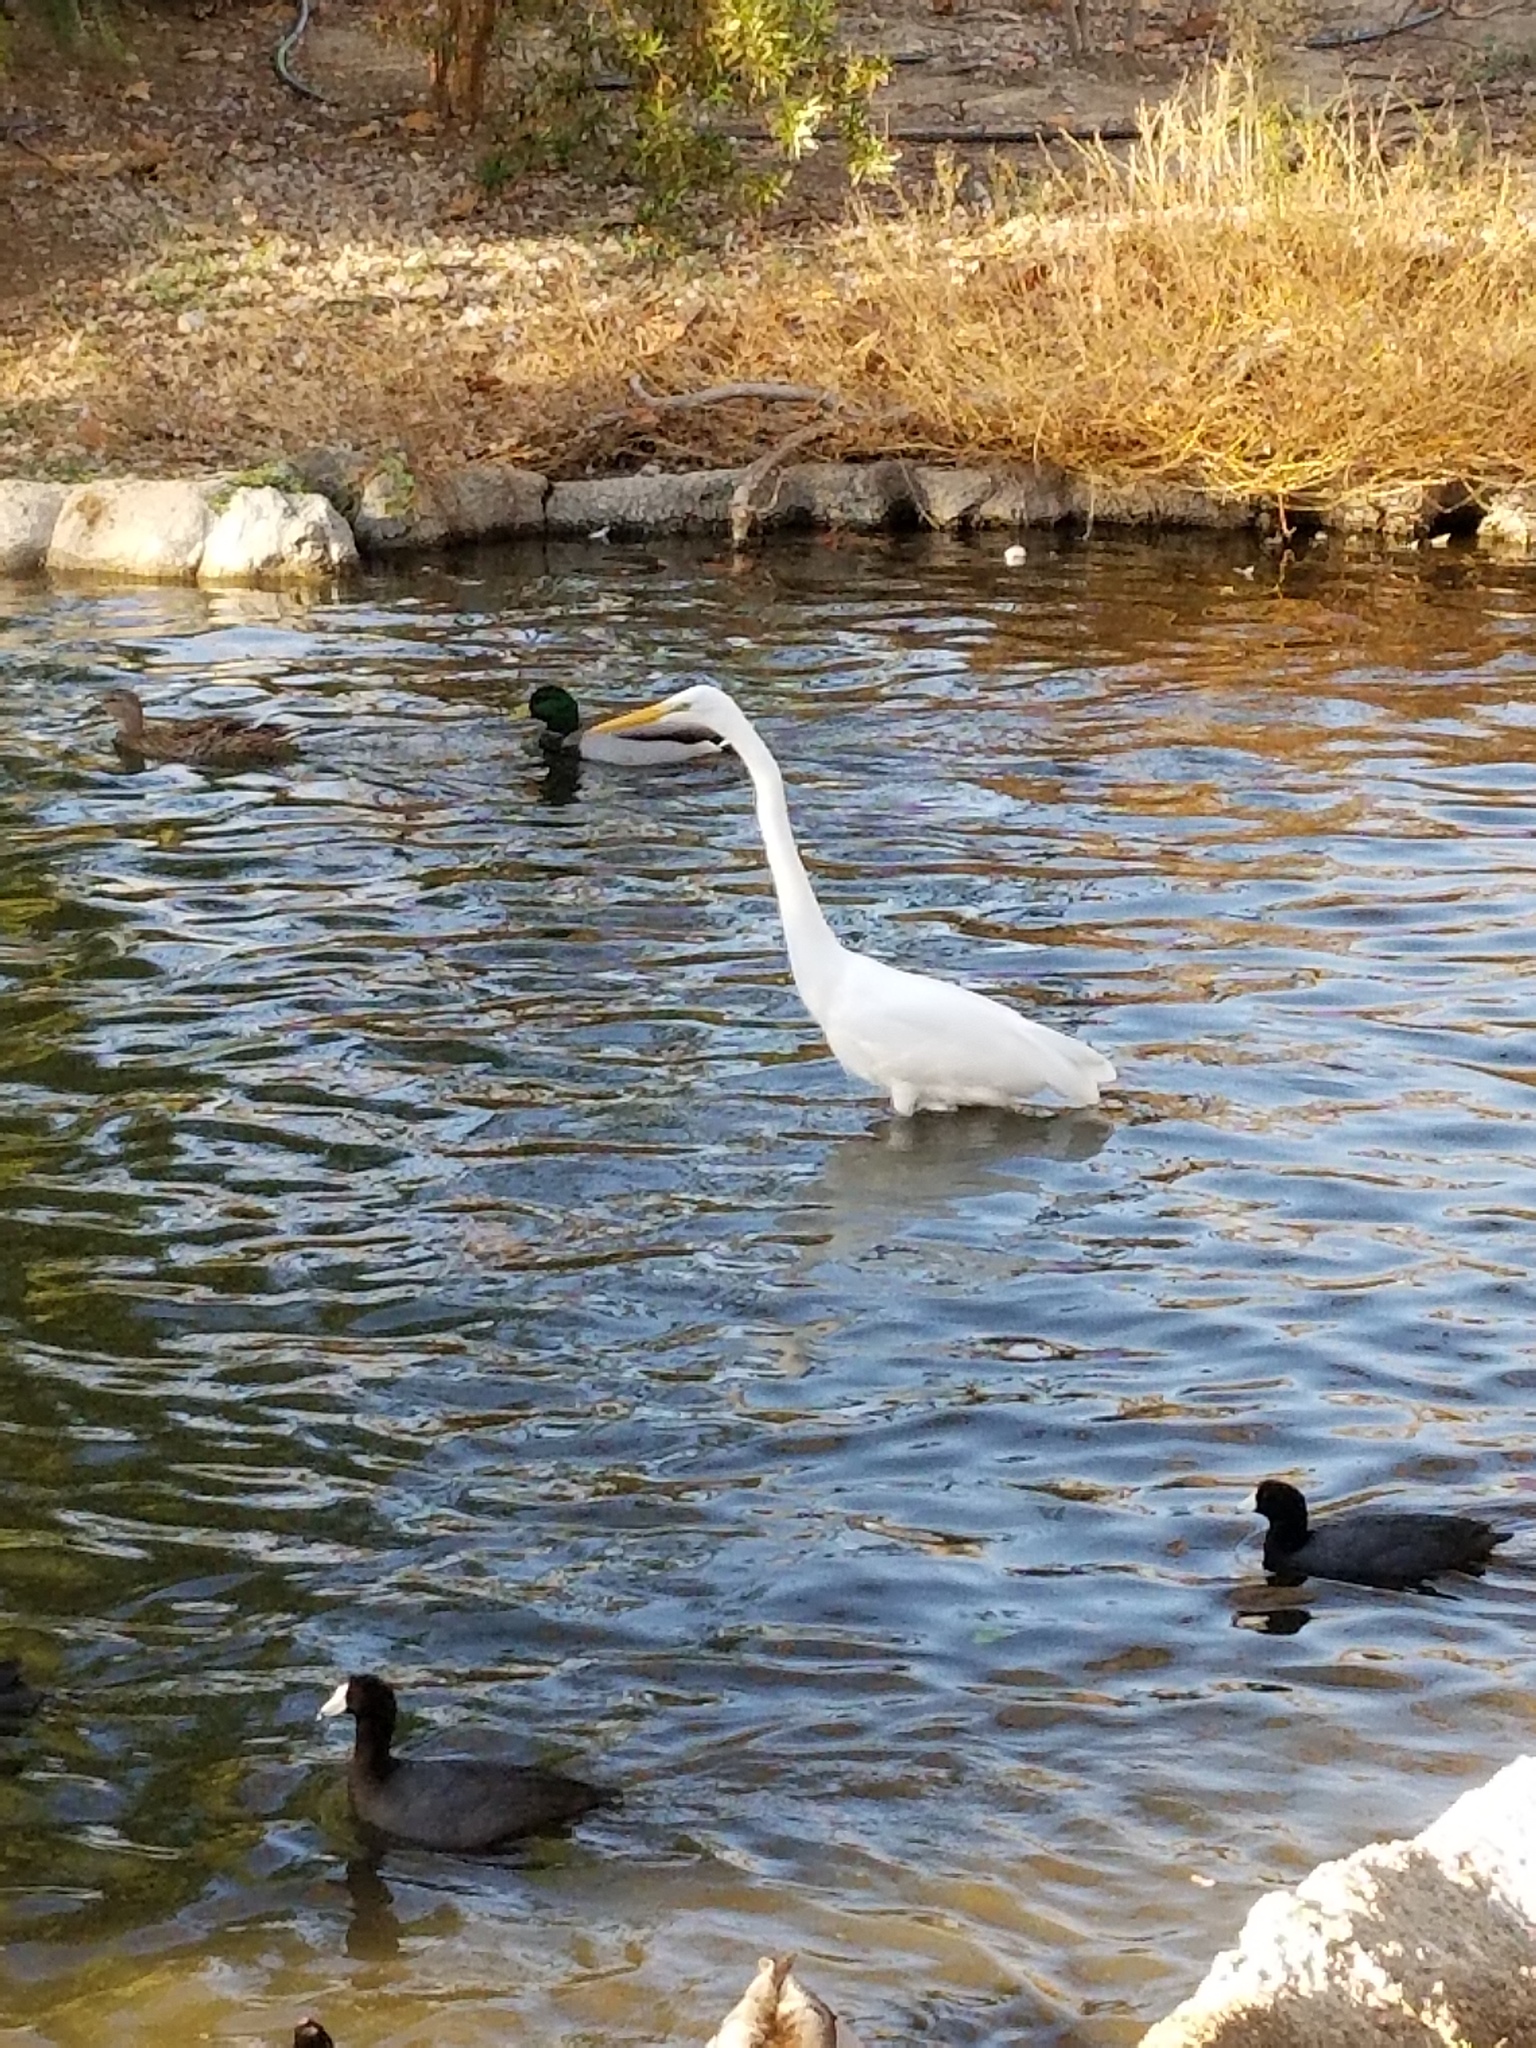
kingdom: Animalia
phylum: Chordata
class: Aves
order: Pelecaniformes
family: Ardeidae
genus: Ardea
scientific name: Ardea alba
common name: Great egret
